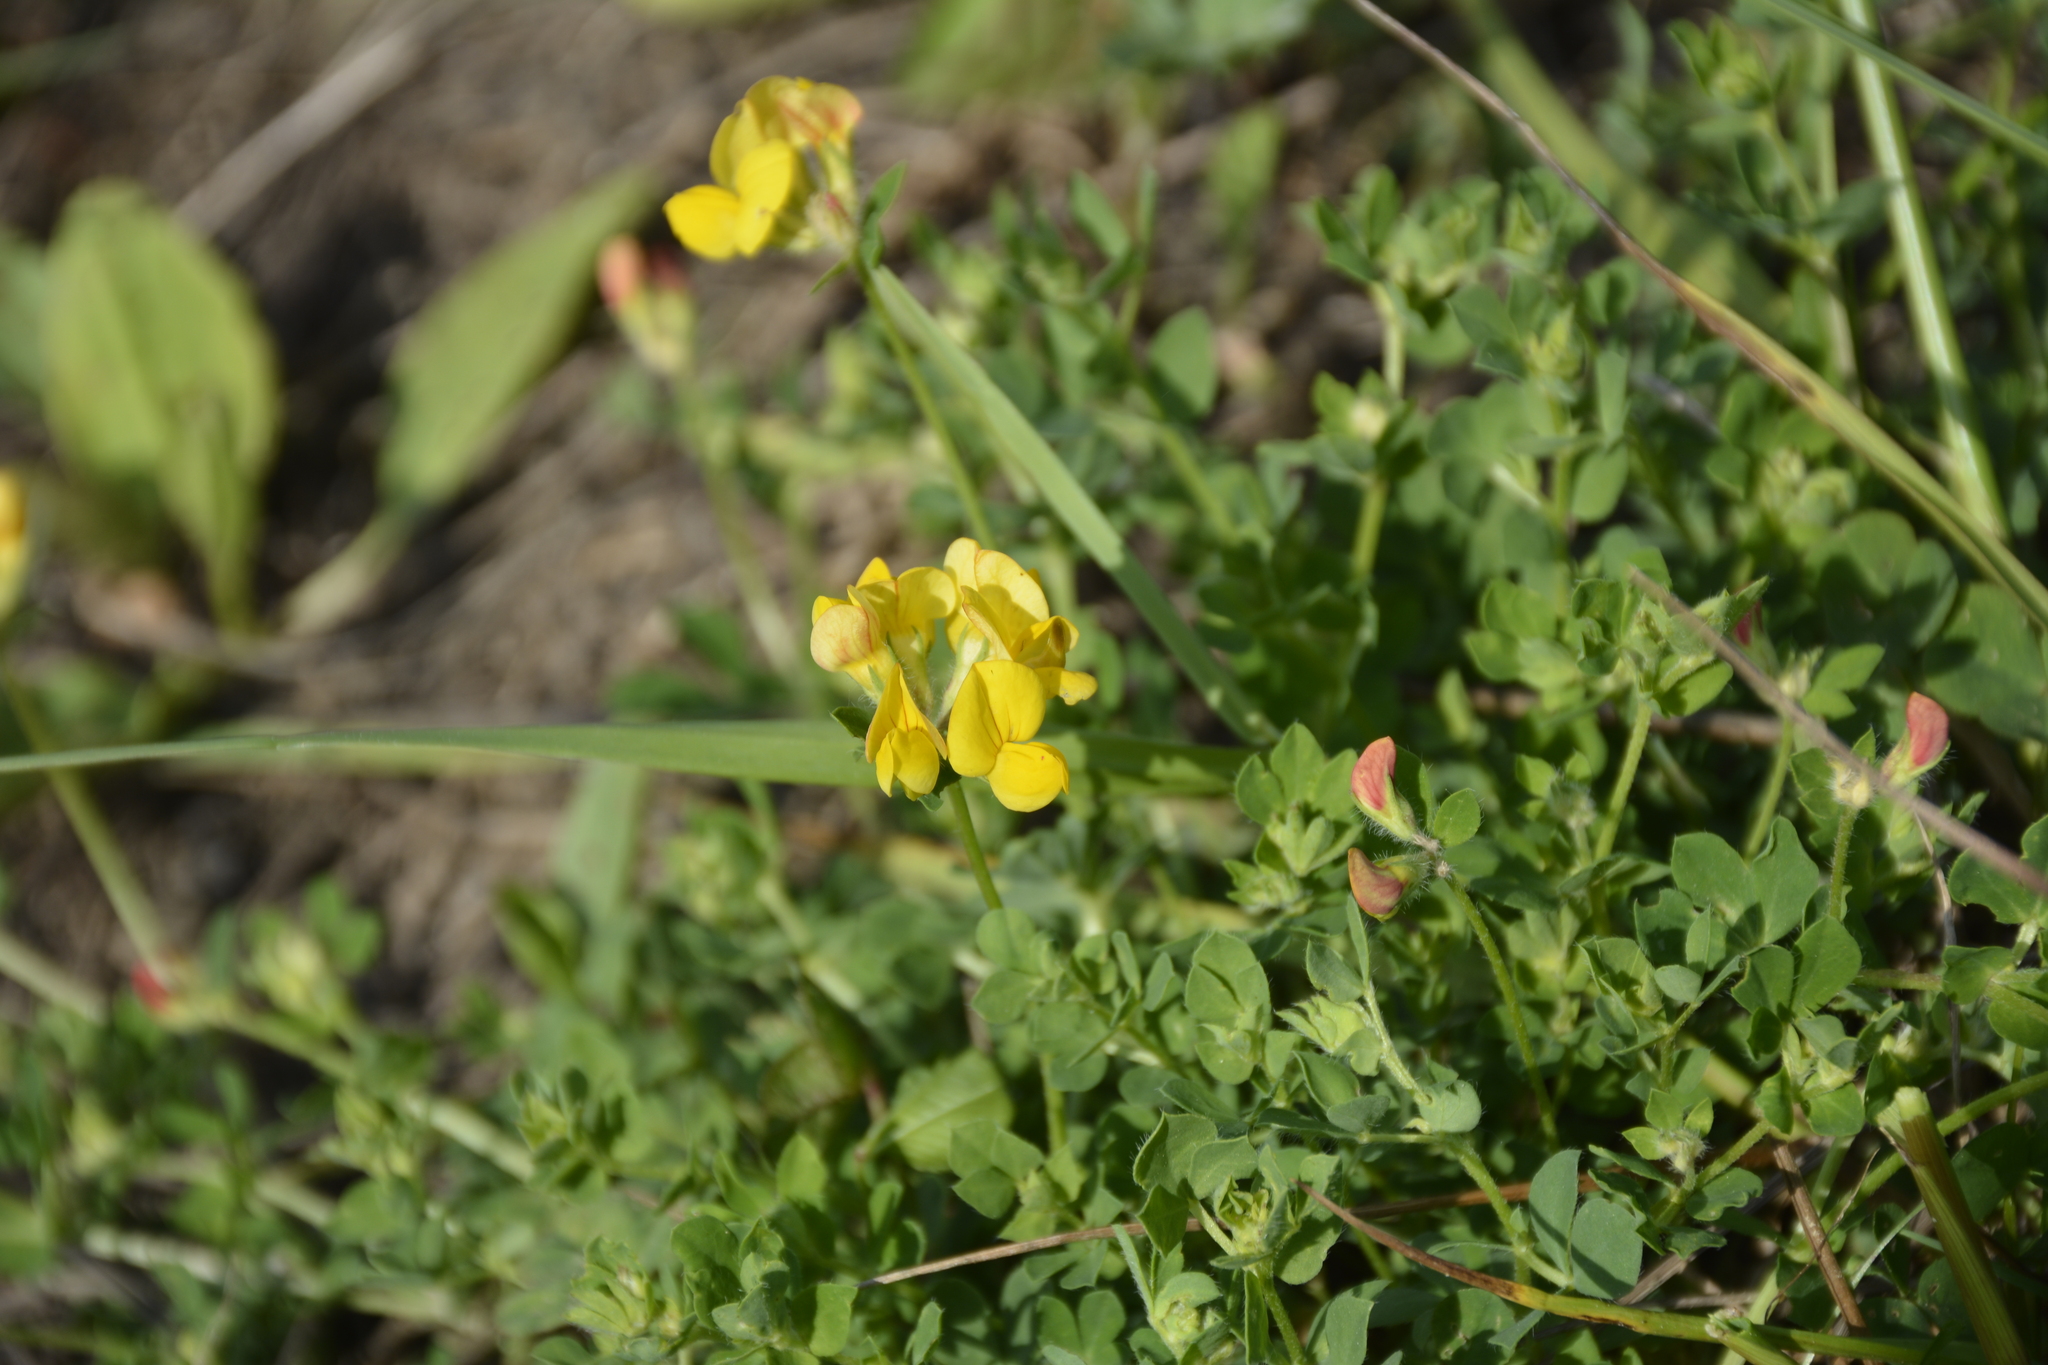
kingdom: Plantae
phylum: Tracheophyta
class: Magnoliopsida
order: Fabales
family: Fabaceae
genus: Lotus
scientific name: Lotus corniculatus
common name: Common bird's-foot-trefoil
